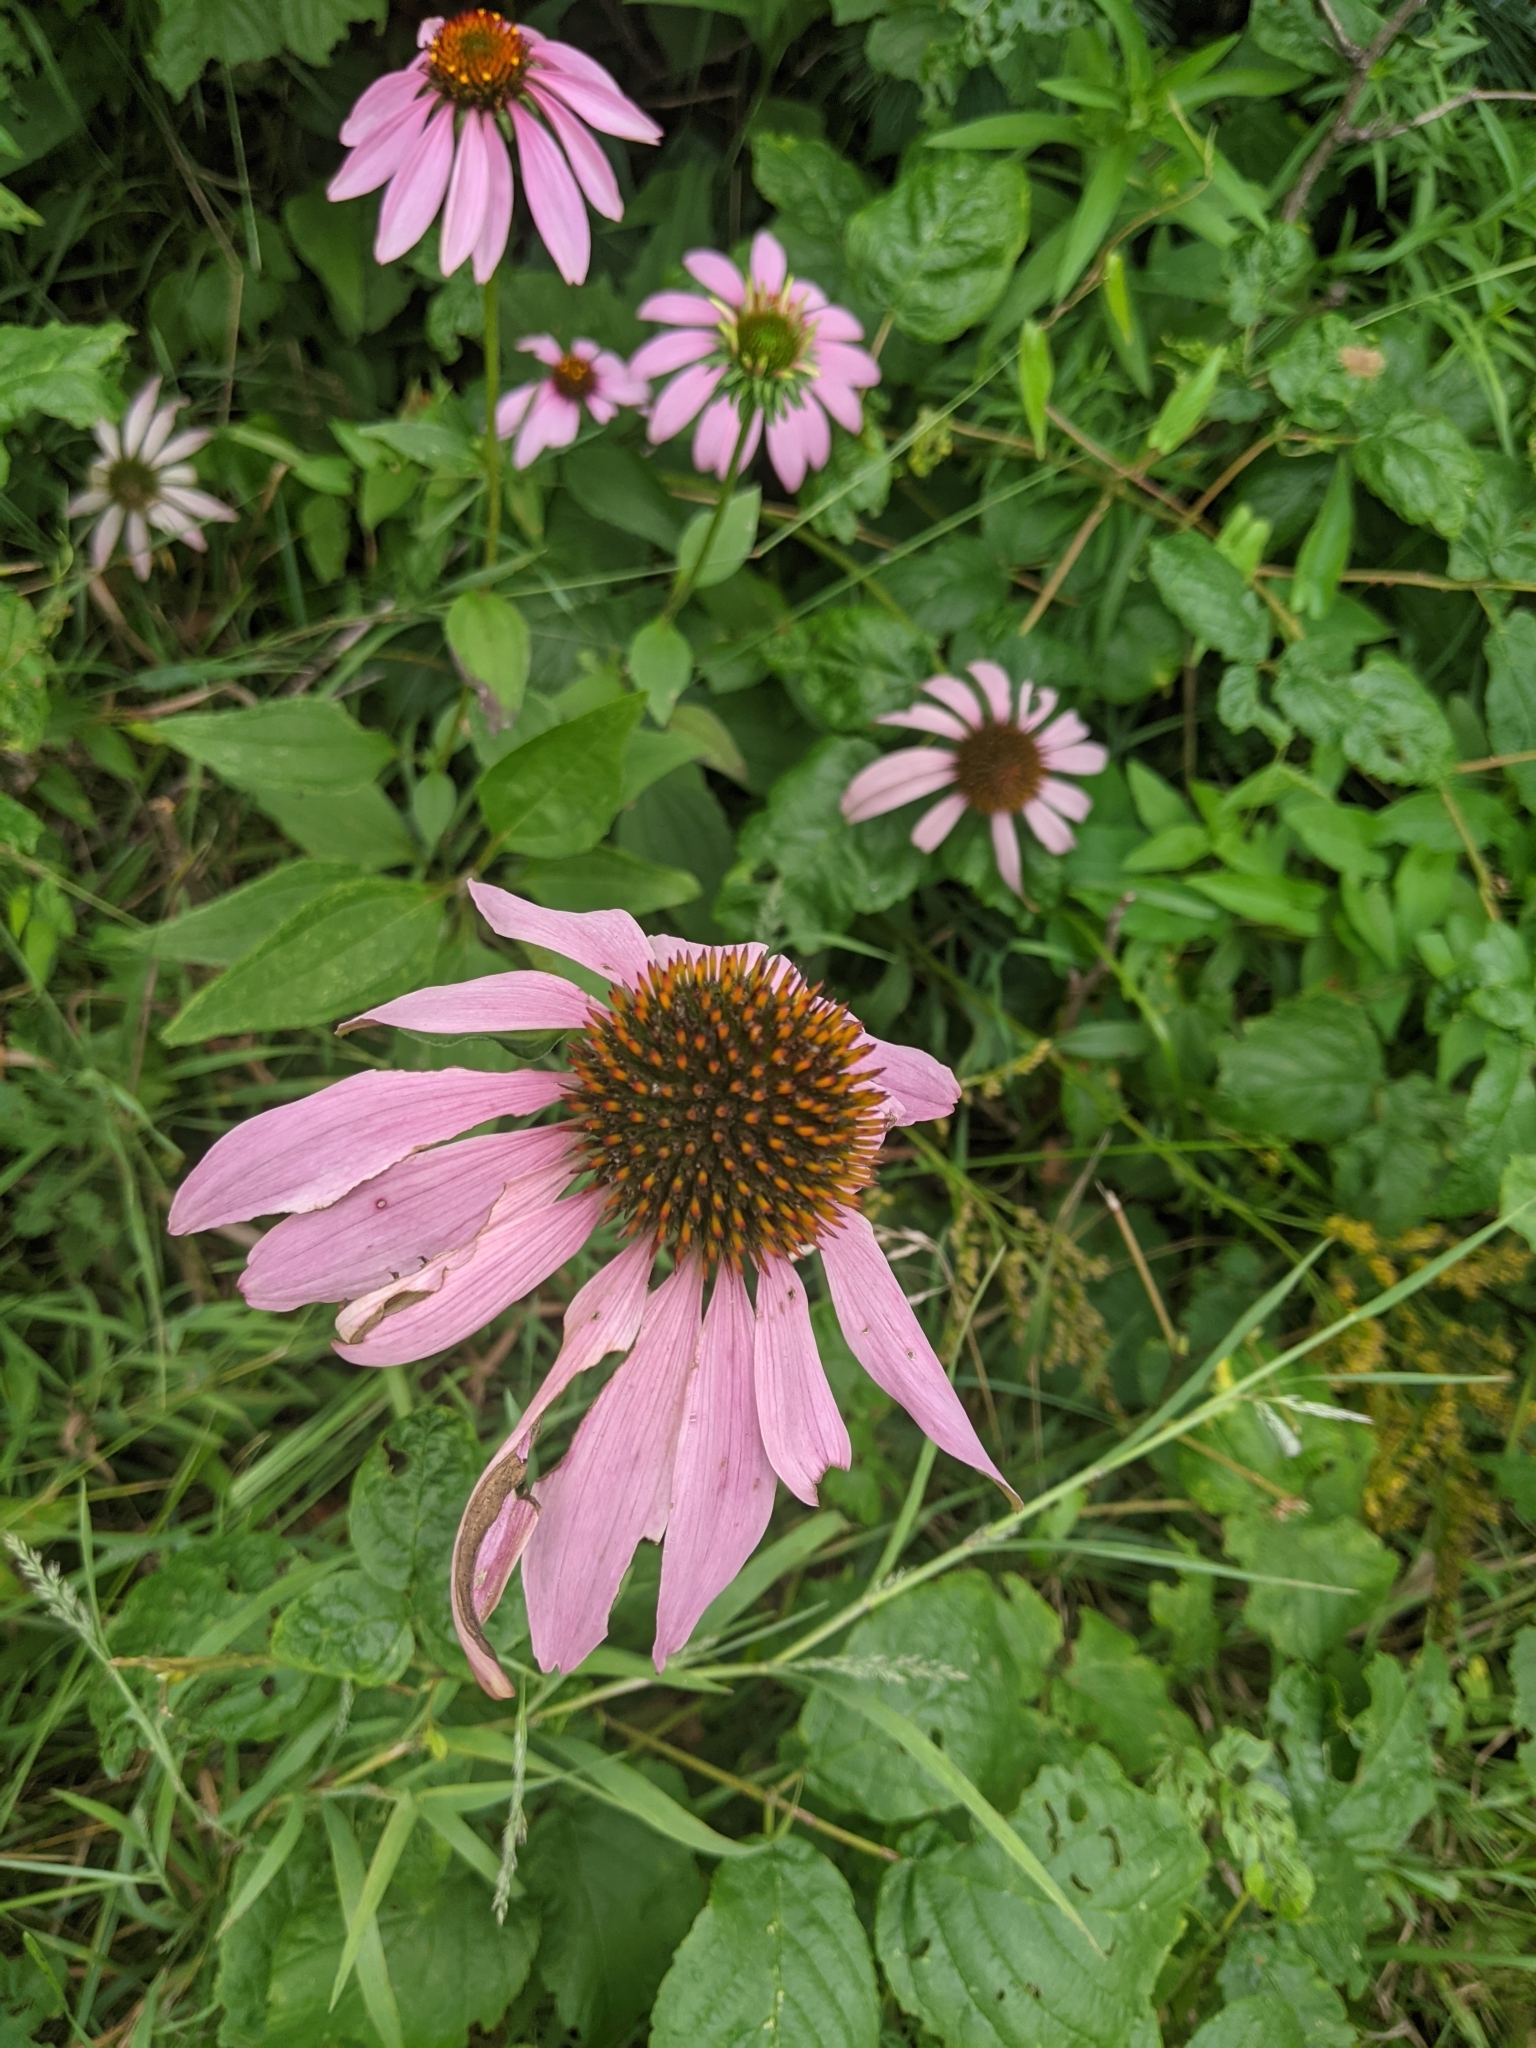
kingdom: Plantae
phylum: Tracheophyta
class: Magnoliopsida
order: Asterales
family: Asteraceae
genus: Echinacea
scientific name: Echinacea purpurea
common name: Broad-leaved purple coneflower
